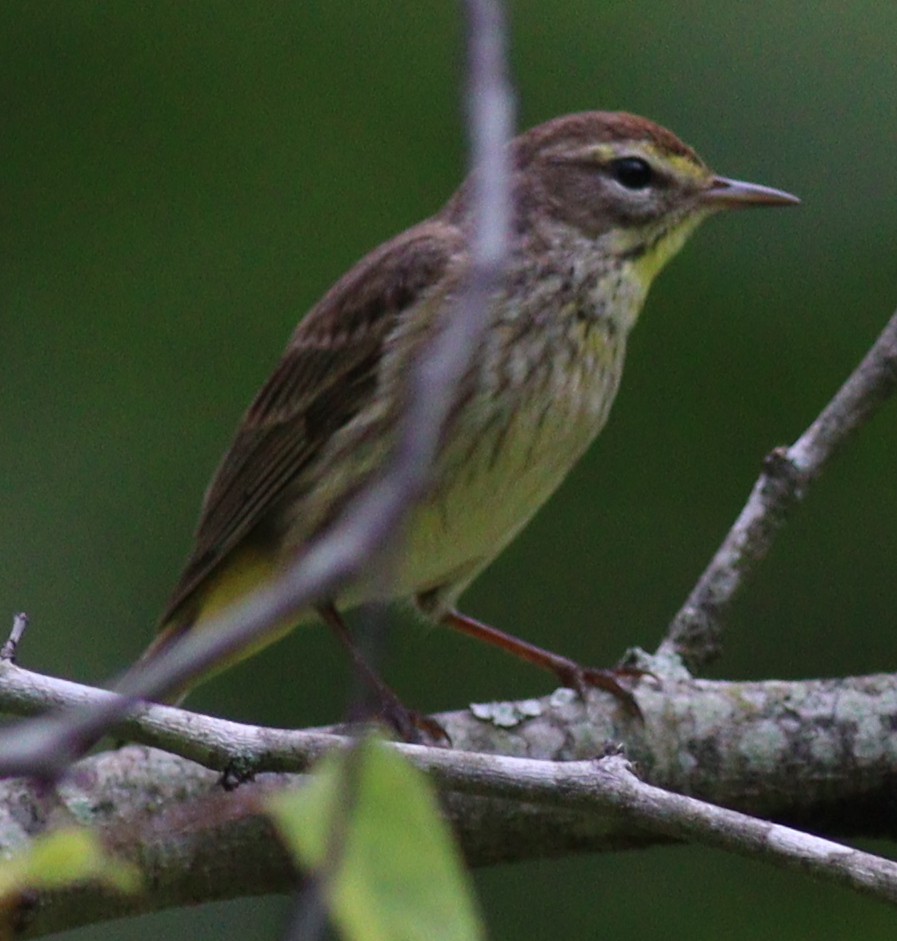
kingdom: Animalia
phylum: Chordata
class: Aves
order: Passeriformes
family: Parulidae
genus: Setophaga
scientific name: Setophaga palmarum
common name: Palm warbler
